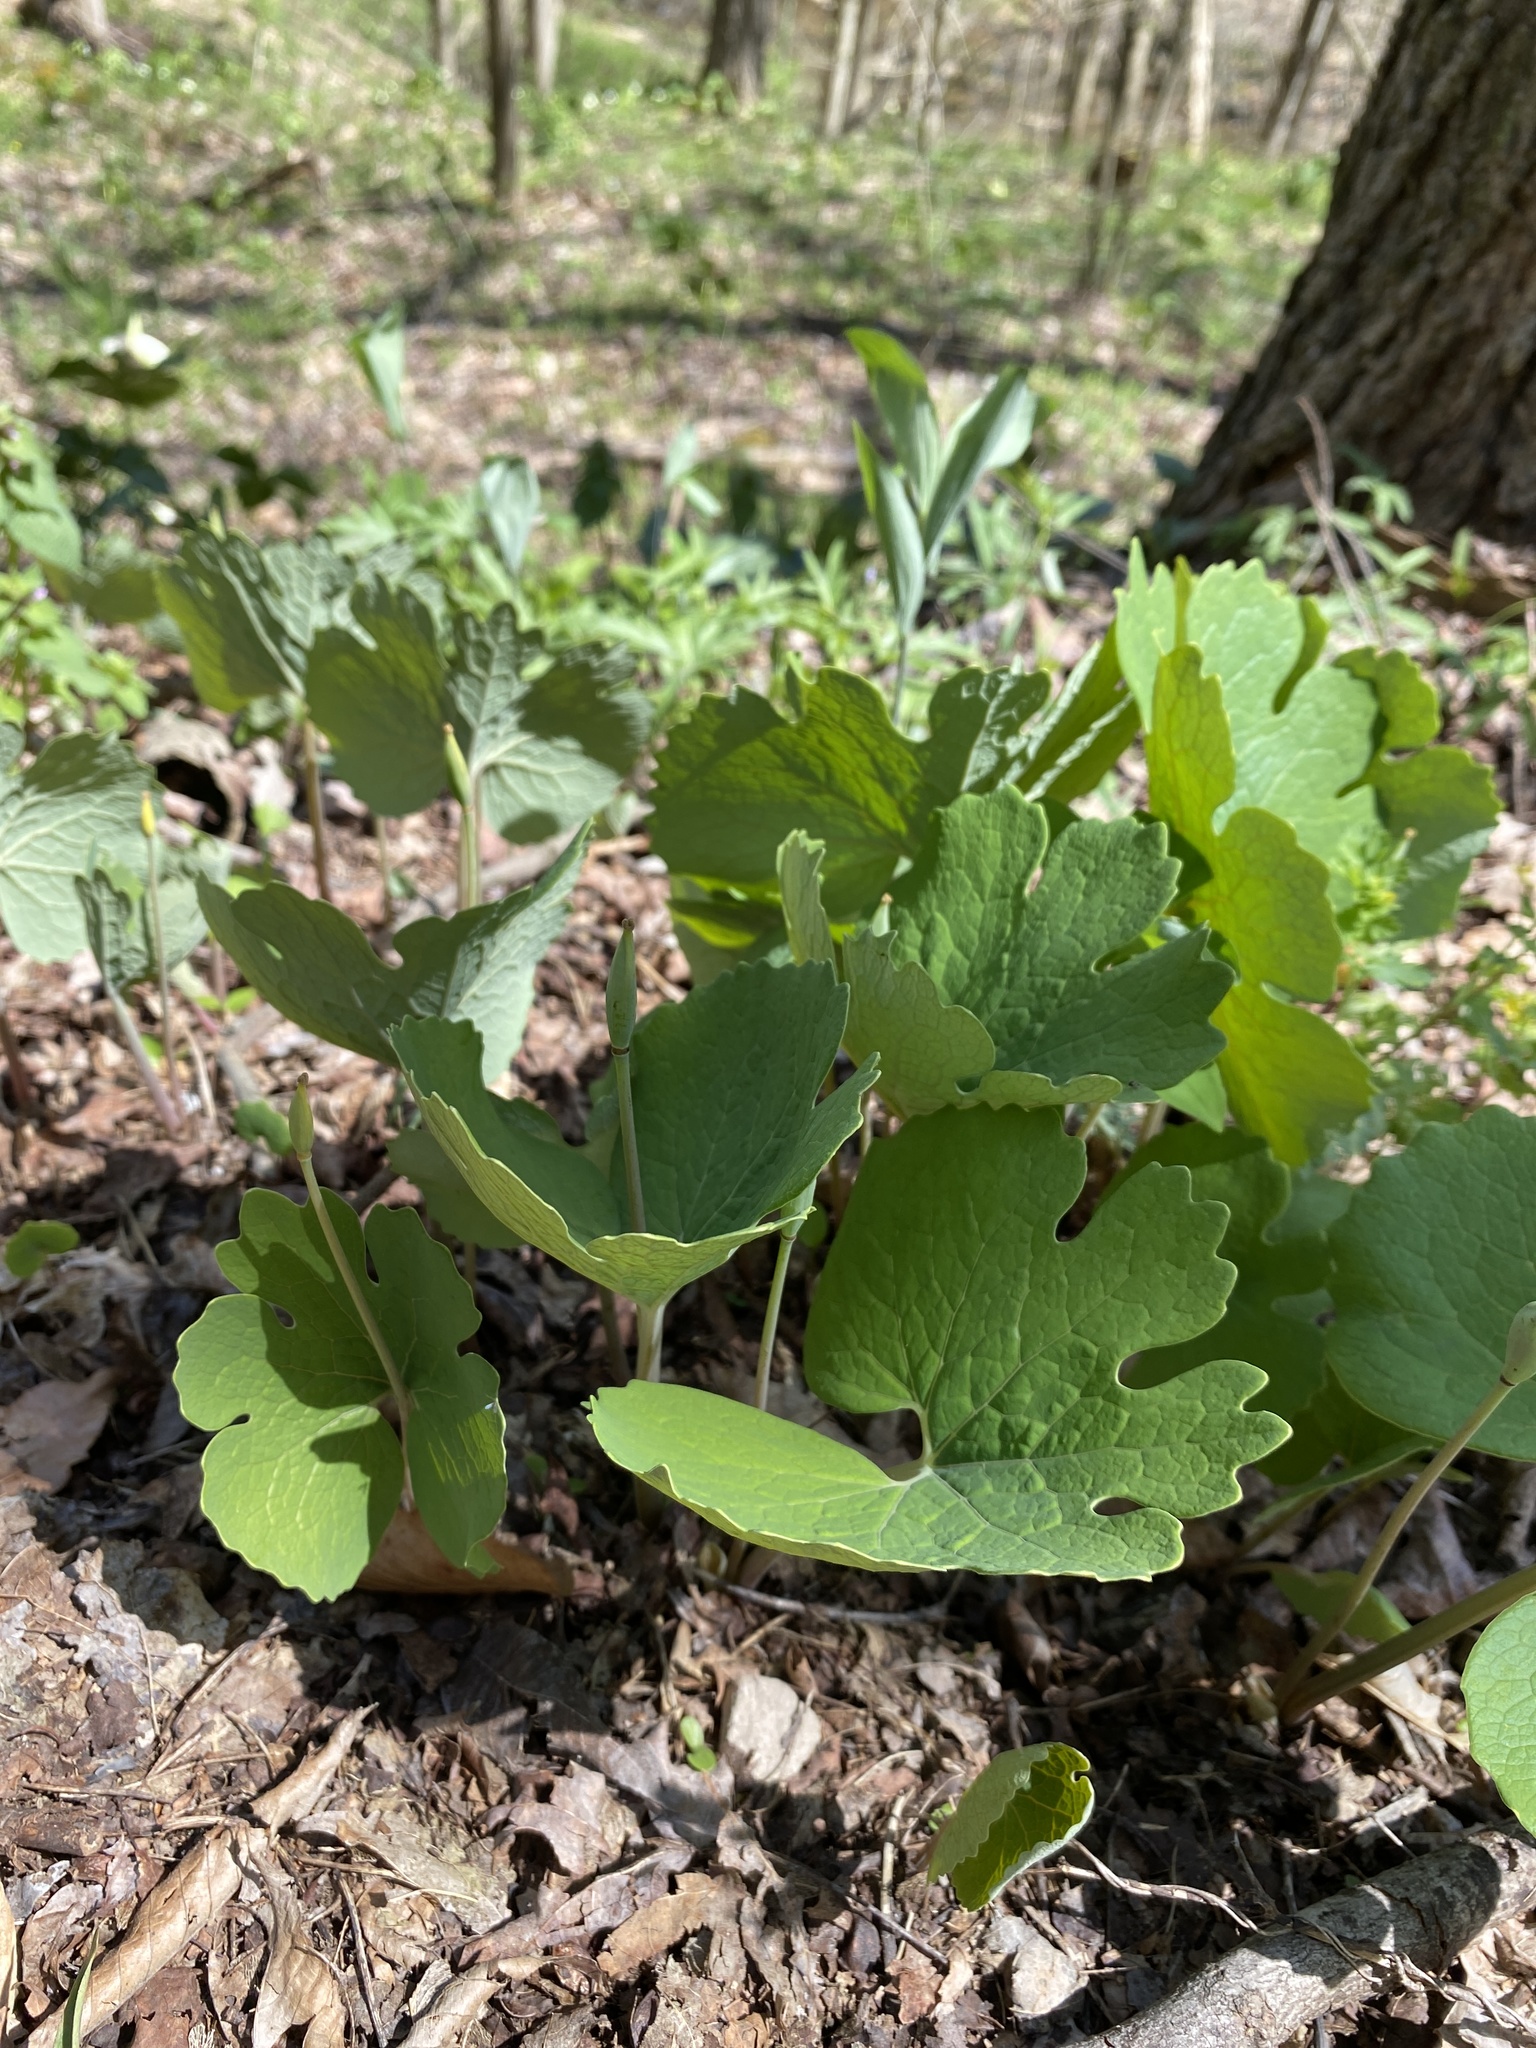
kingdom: Plantae
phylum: Tracheophyta
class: Magnoliopsida
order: Ranunculales
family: Papaveraceae
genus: Sanguinaria
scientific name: Sanguinaria canadensis
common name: Bloodroot
